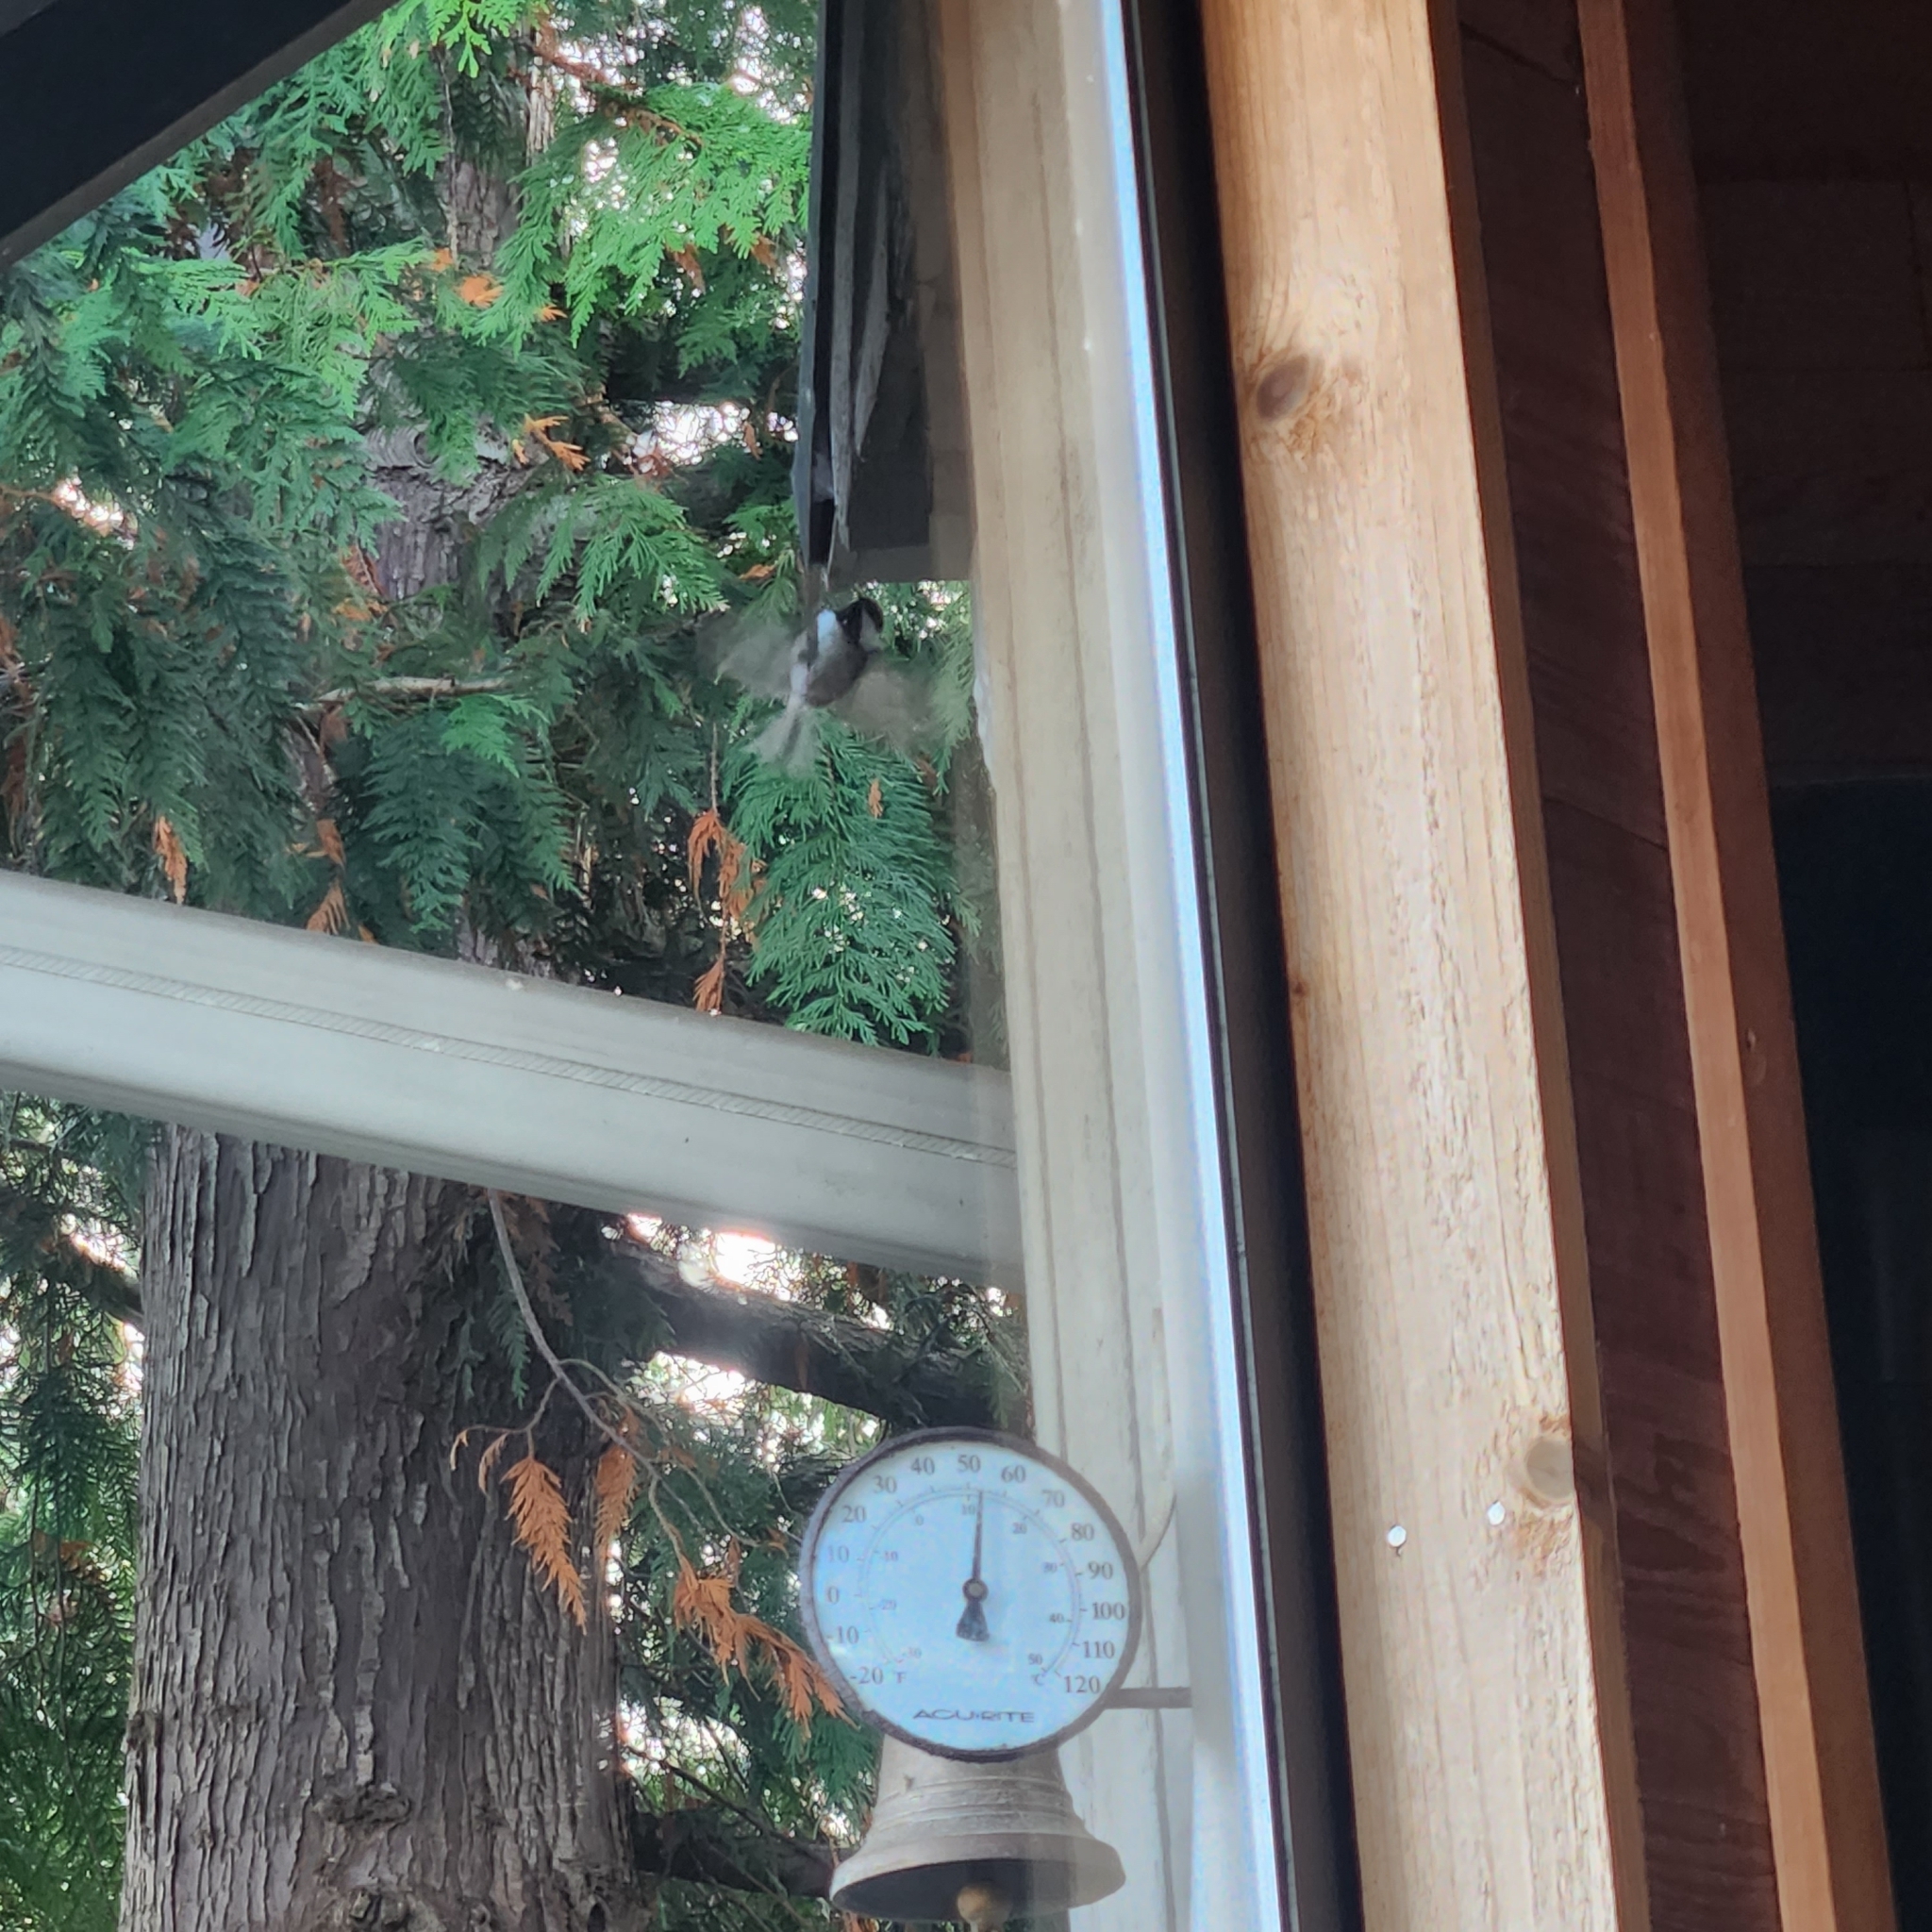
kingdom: Animalia
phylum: Chordata
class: Aves
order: Passeriformes
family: Paridae
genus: Poecile
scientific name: Poecile rufescens
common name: Chestnut-backed chickadee
